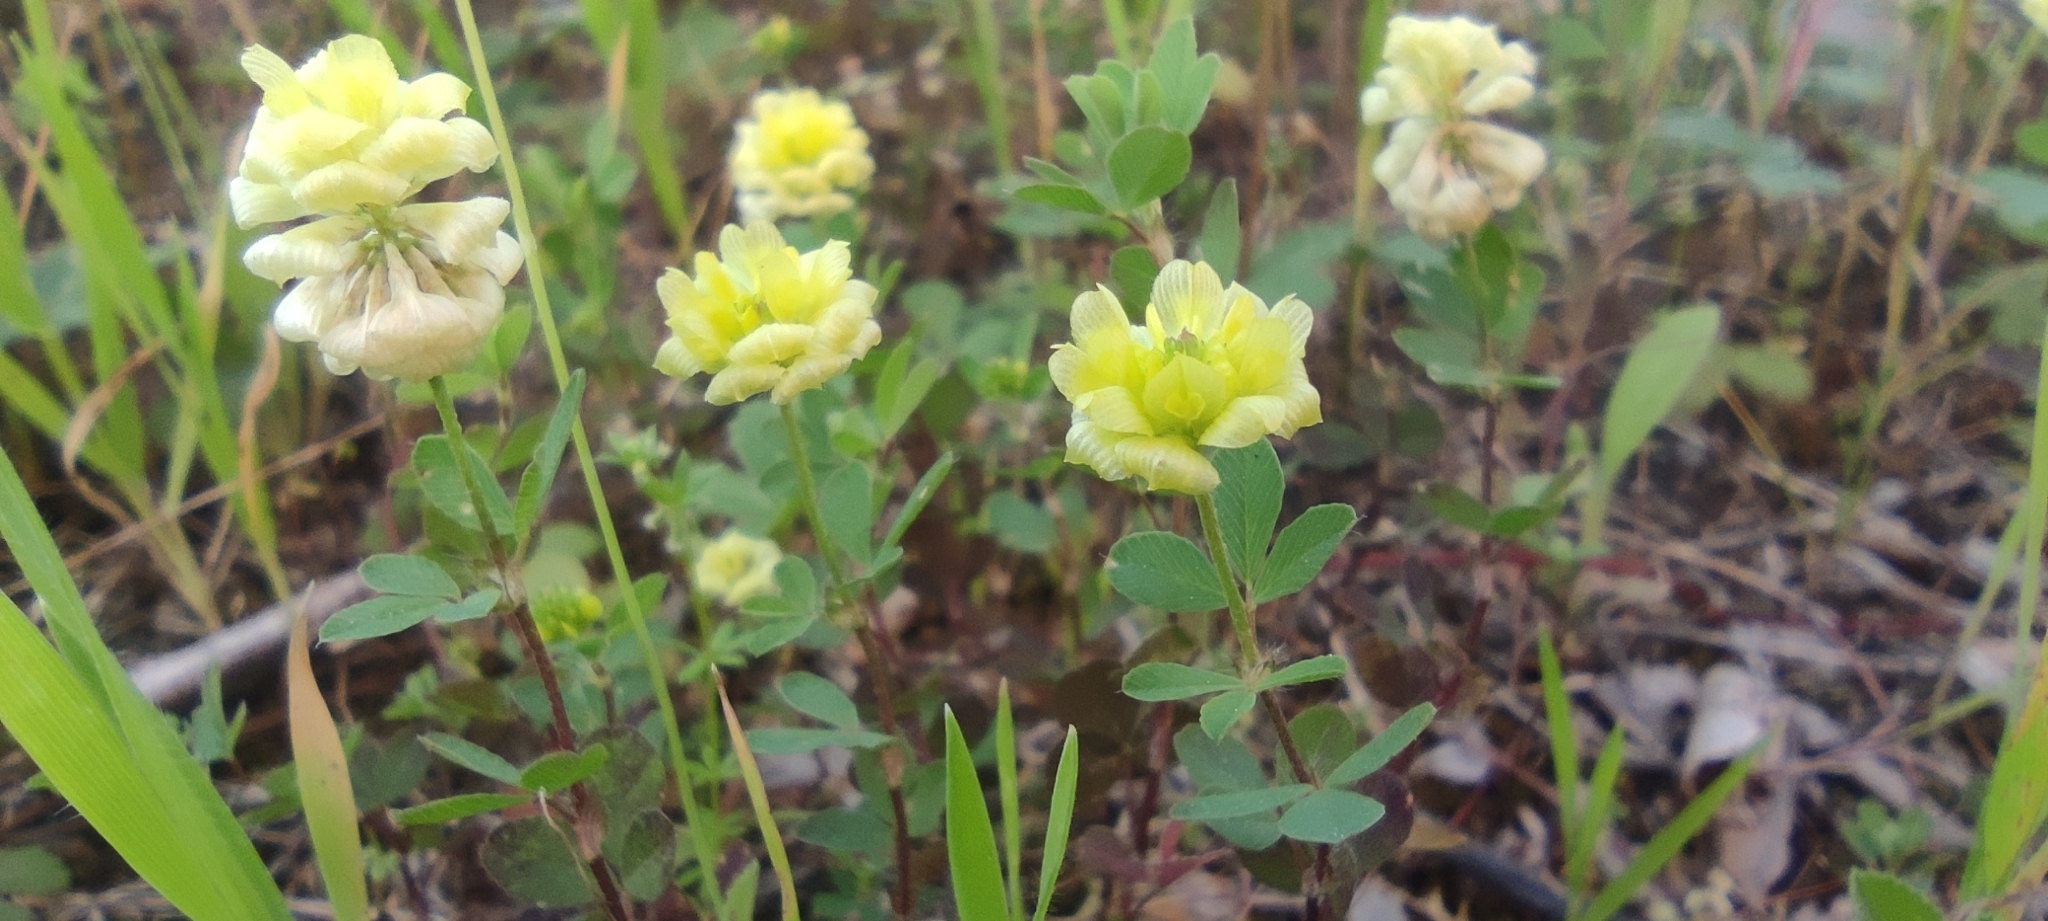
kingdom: Plantae
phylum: Tracheophyta
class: Magnoliopsida
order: Fabales
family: Fabaceae
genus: Trifolium
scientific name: Trifolium campestre
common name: Field clover
